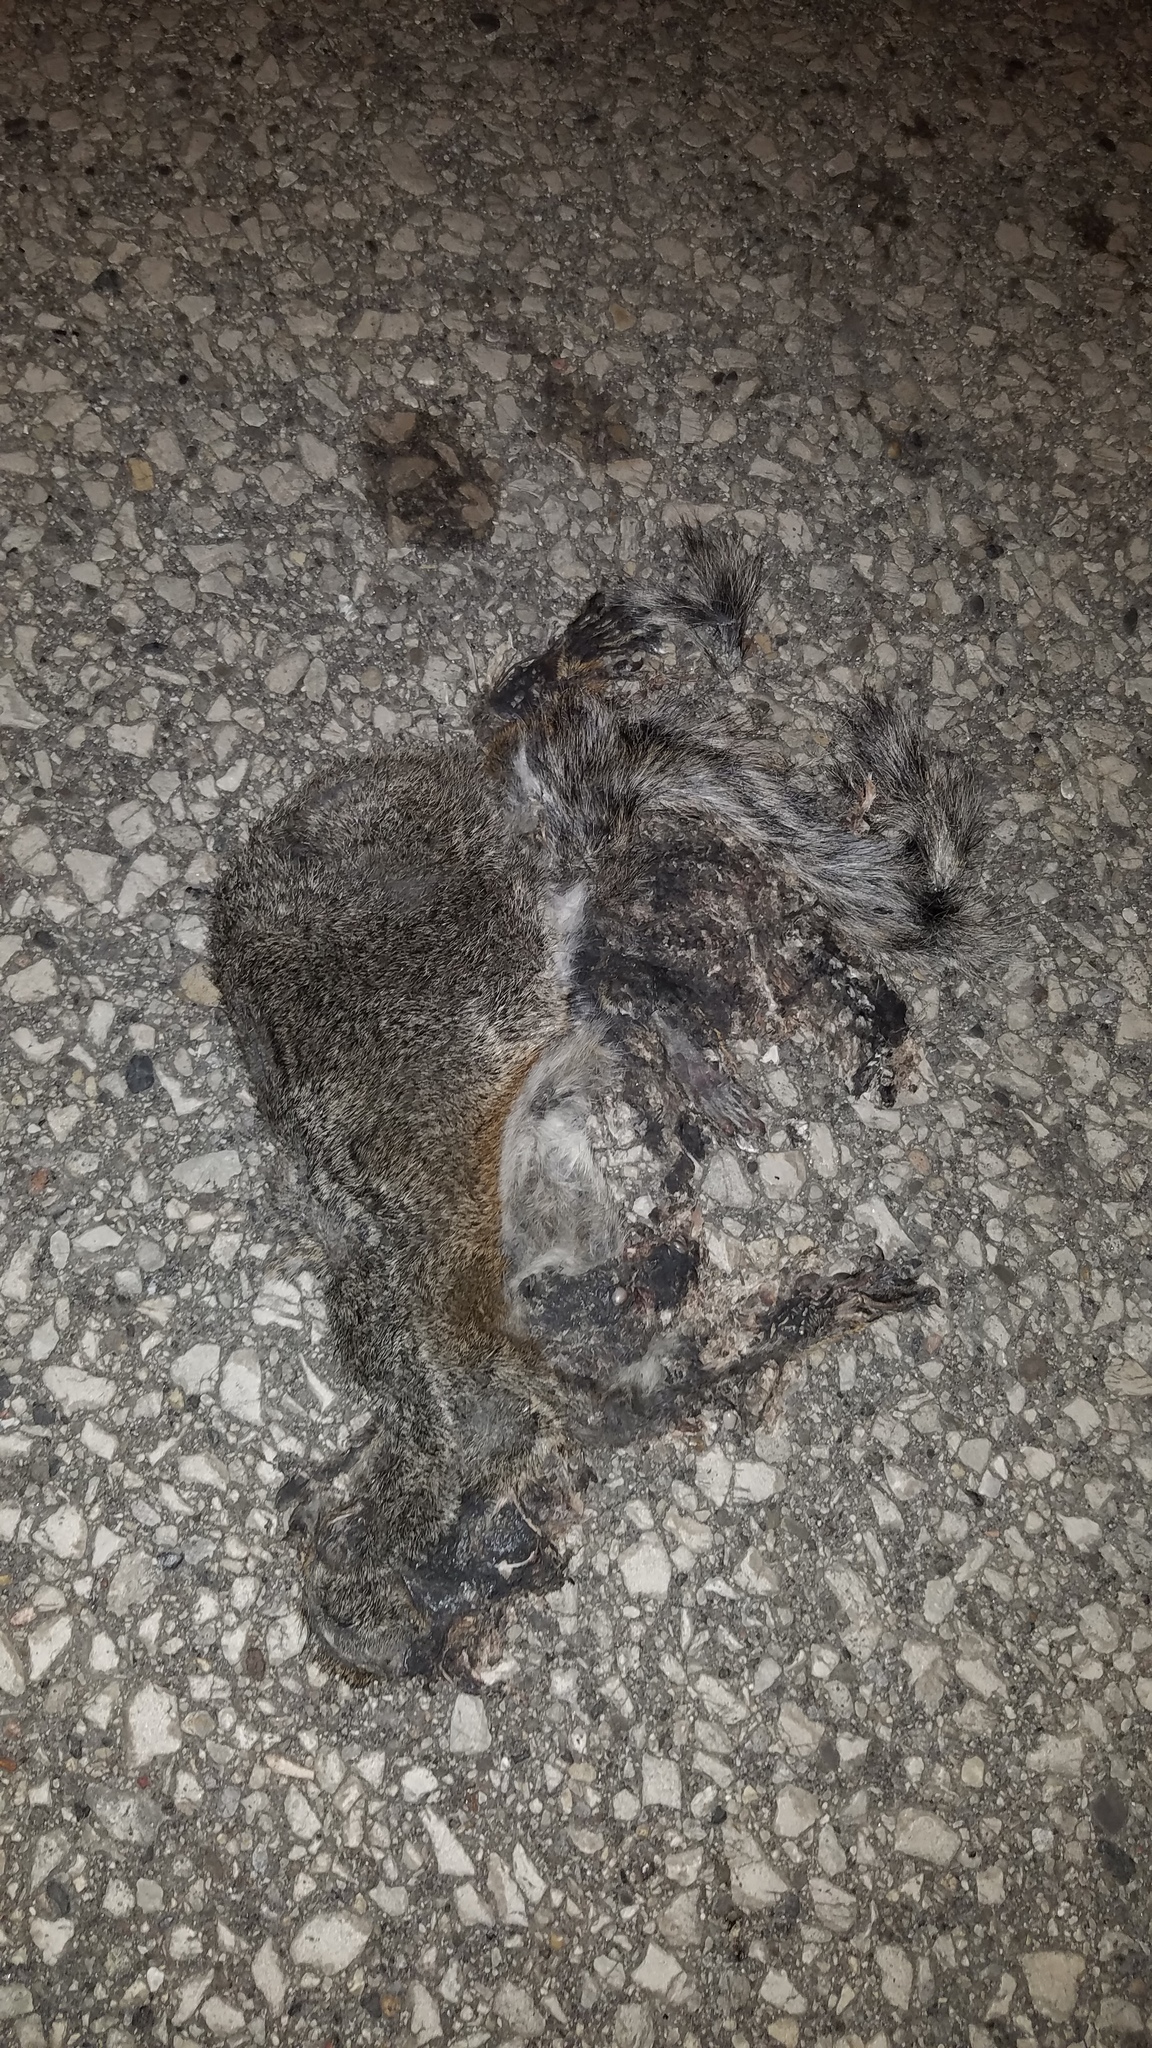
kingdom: Animalia
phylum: Chordata
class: Mammalia
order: Rodentia
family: Sciuridae
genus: Sciurus
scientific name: Sciurus carolinensis
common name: Eastern gray squirrel
